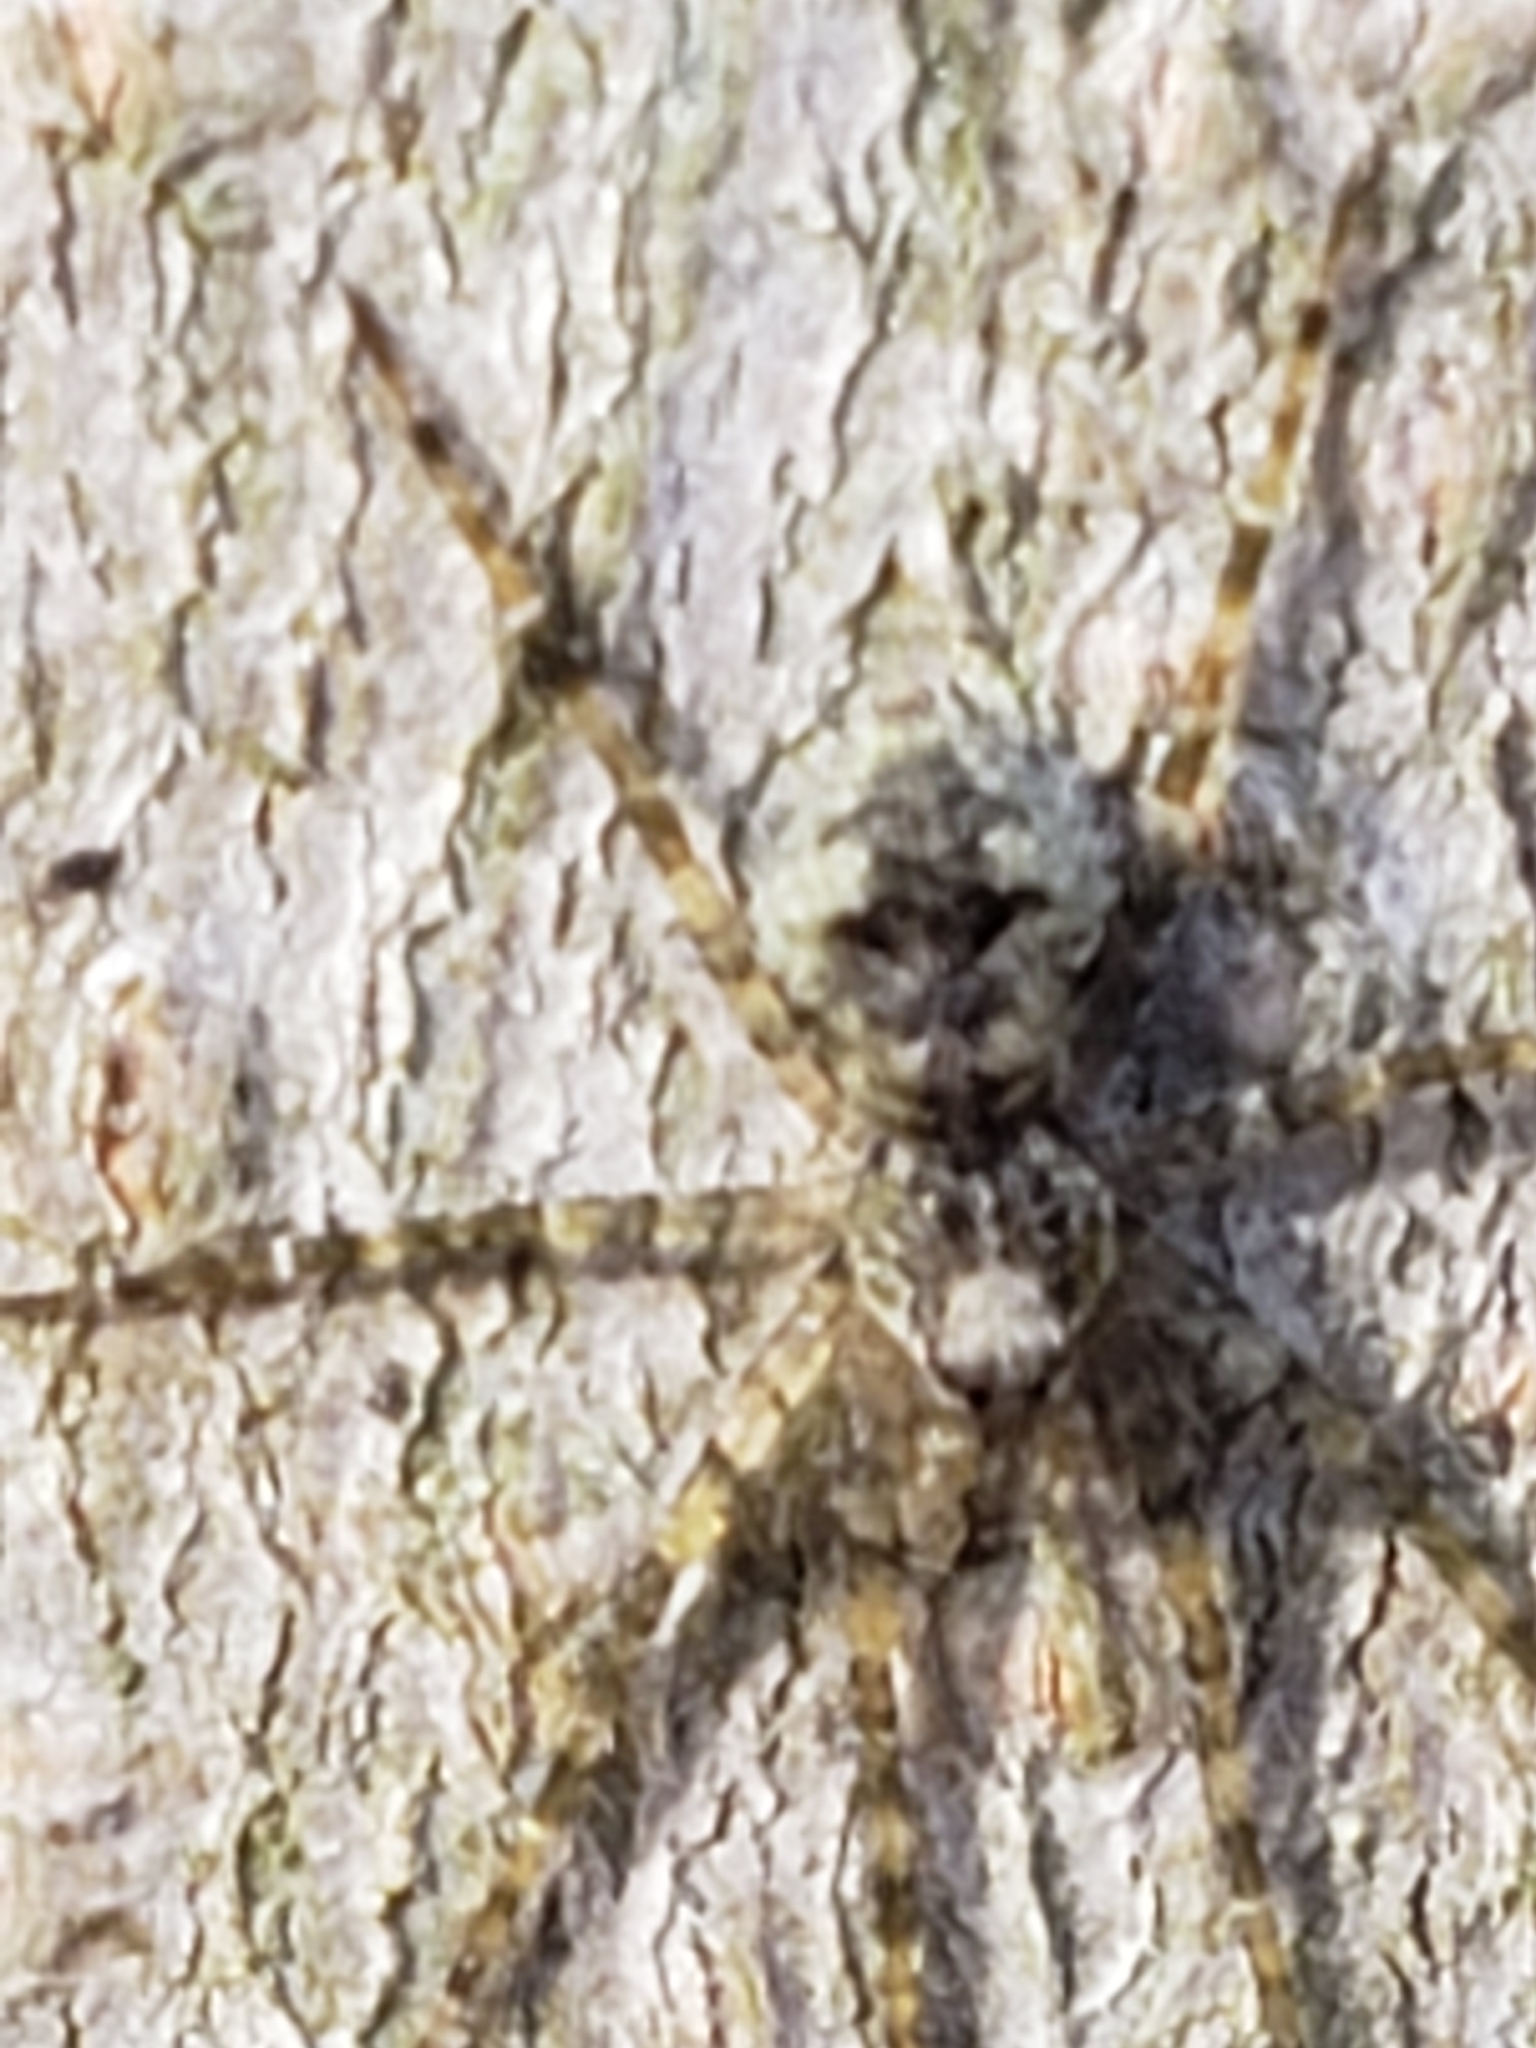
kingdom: Animalia
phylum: Arthropoda
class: Arachnida
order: Araneae
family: Pisauridae
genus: Dolomedes
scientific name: Dolomedes albineus
